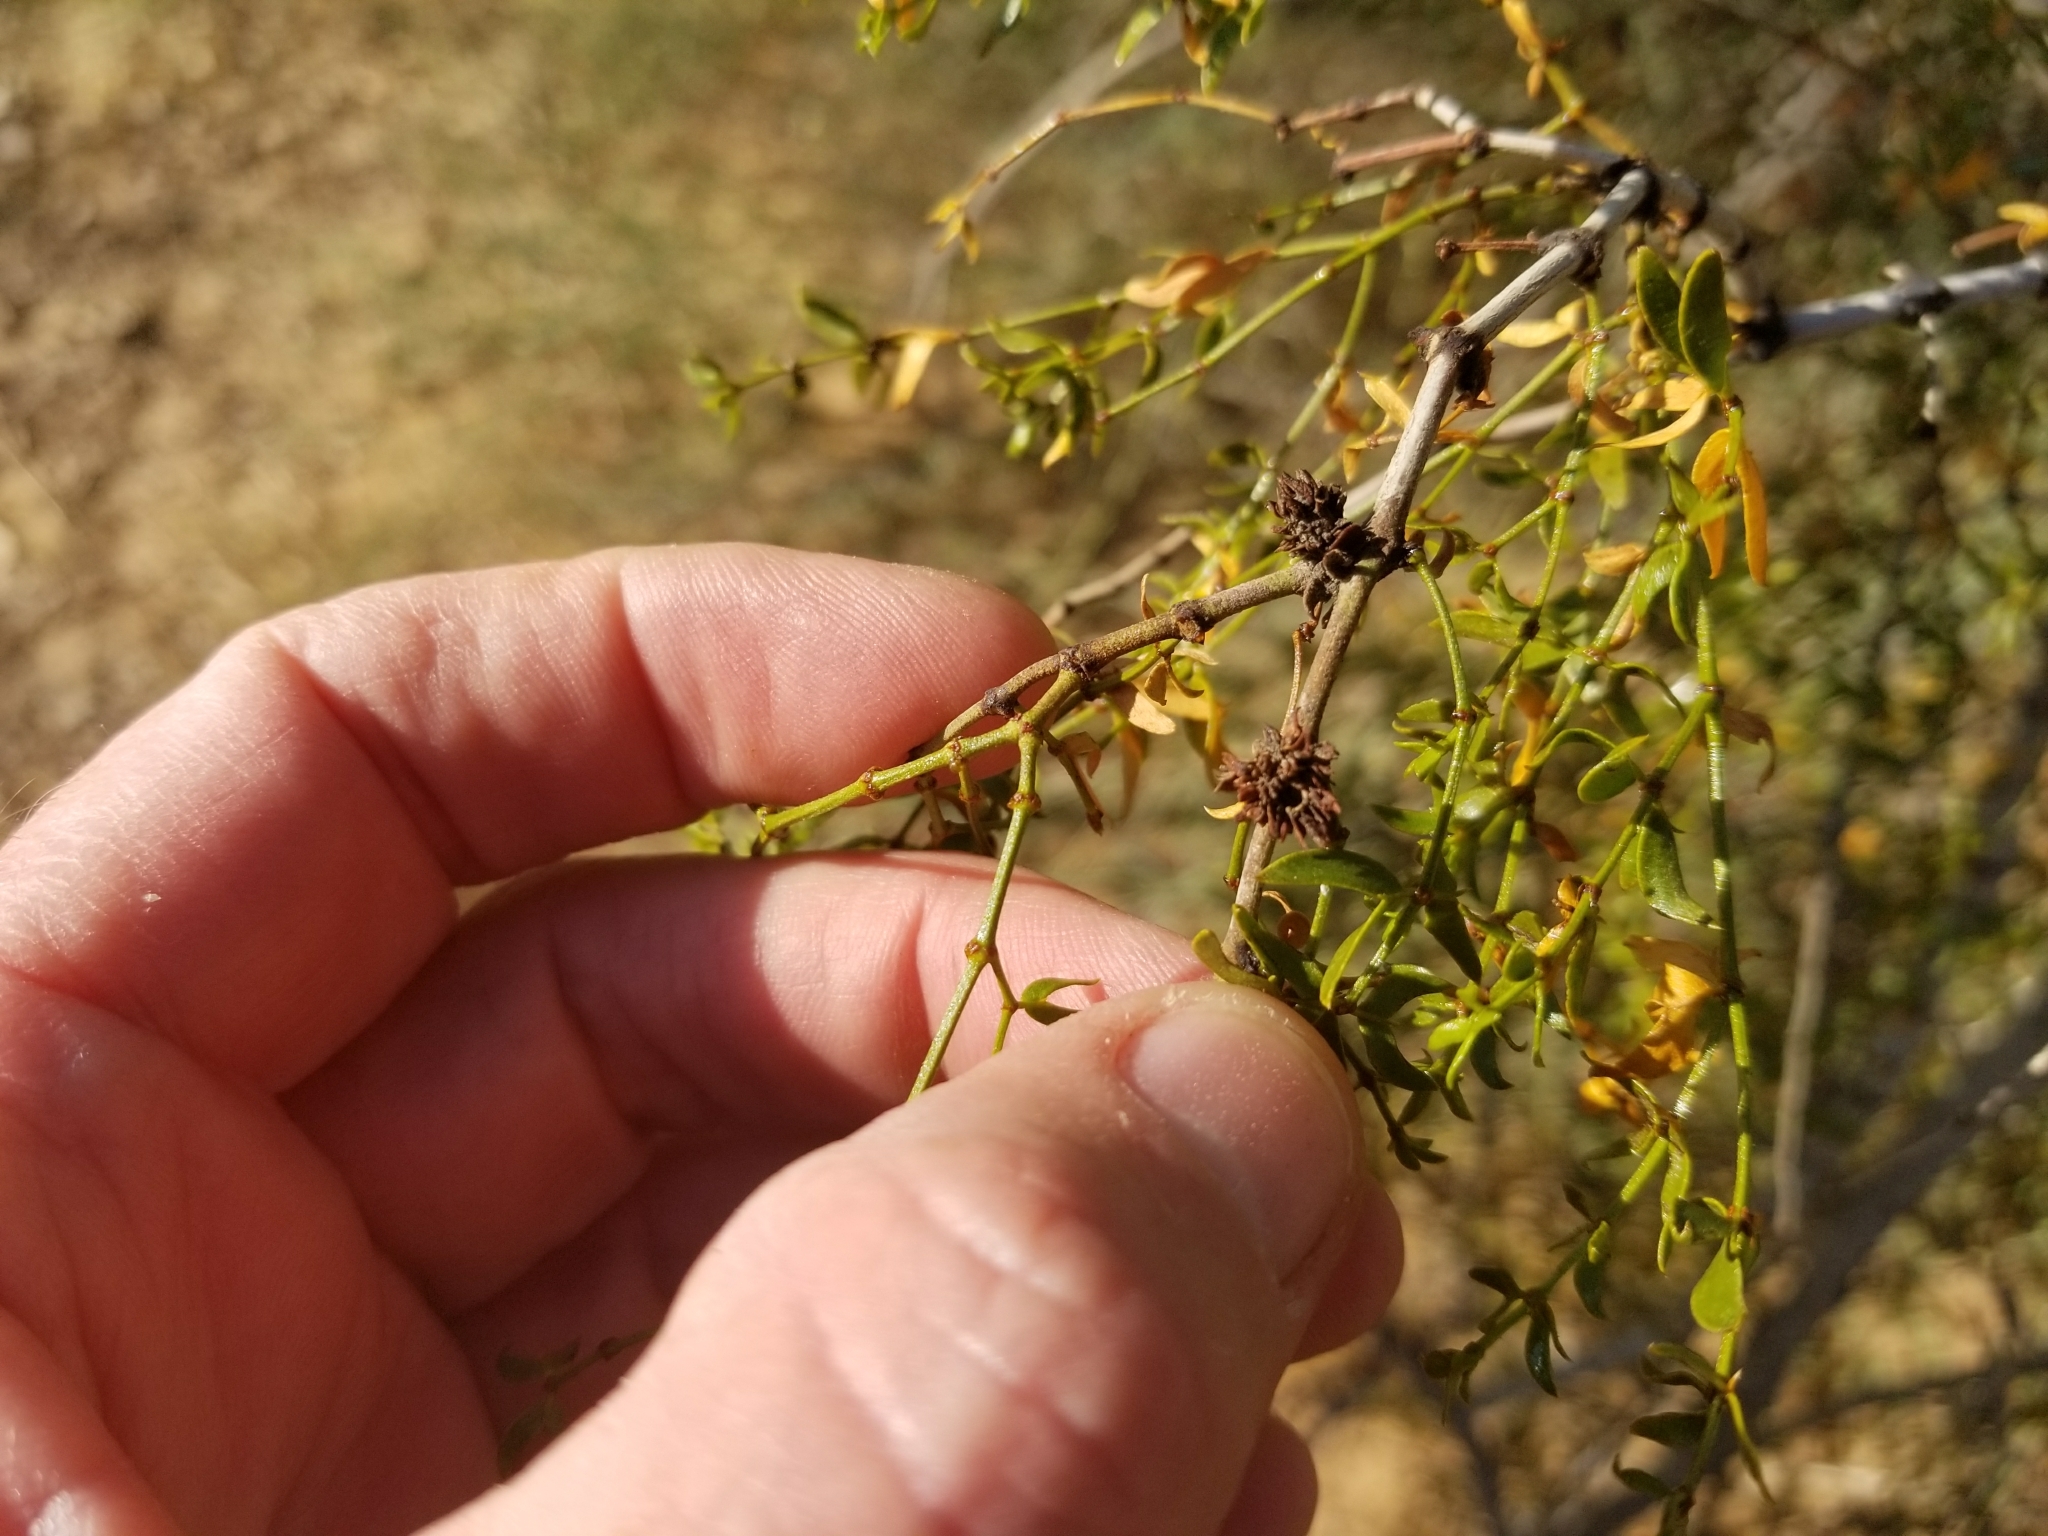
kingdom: Animalia
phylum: Arthropoda
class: Insecta
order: Diptera
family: Cecidomyiidae
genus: Asphondylia
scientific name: Asphondylia rosetta
